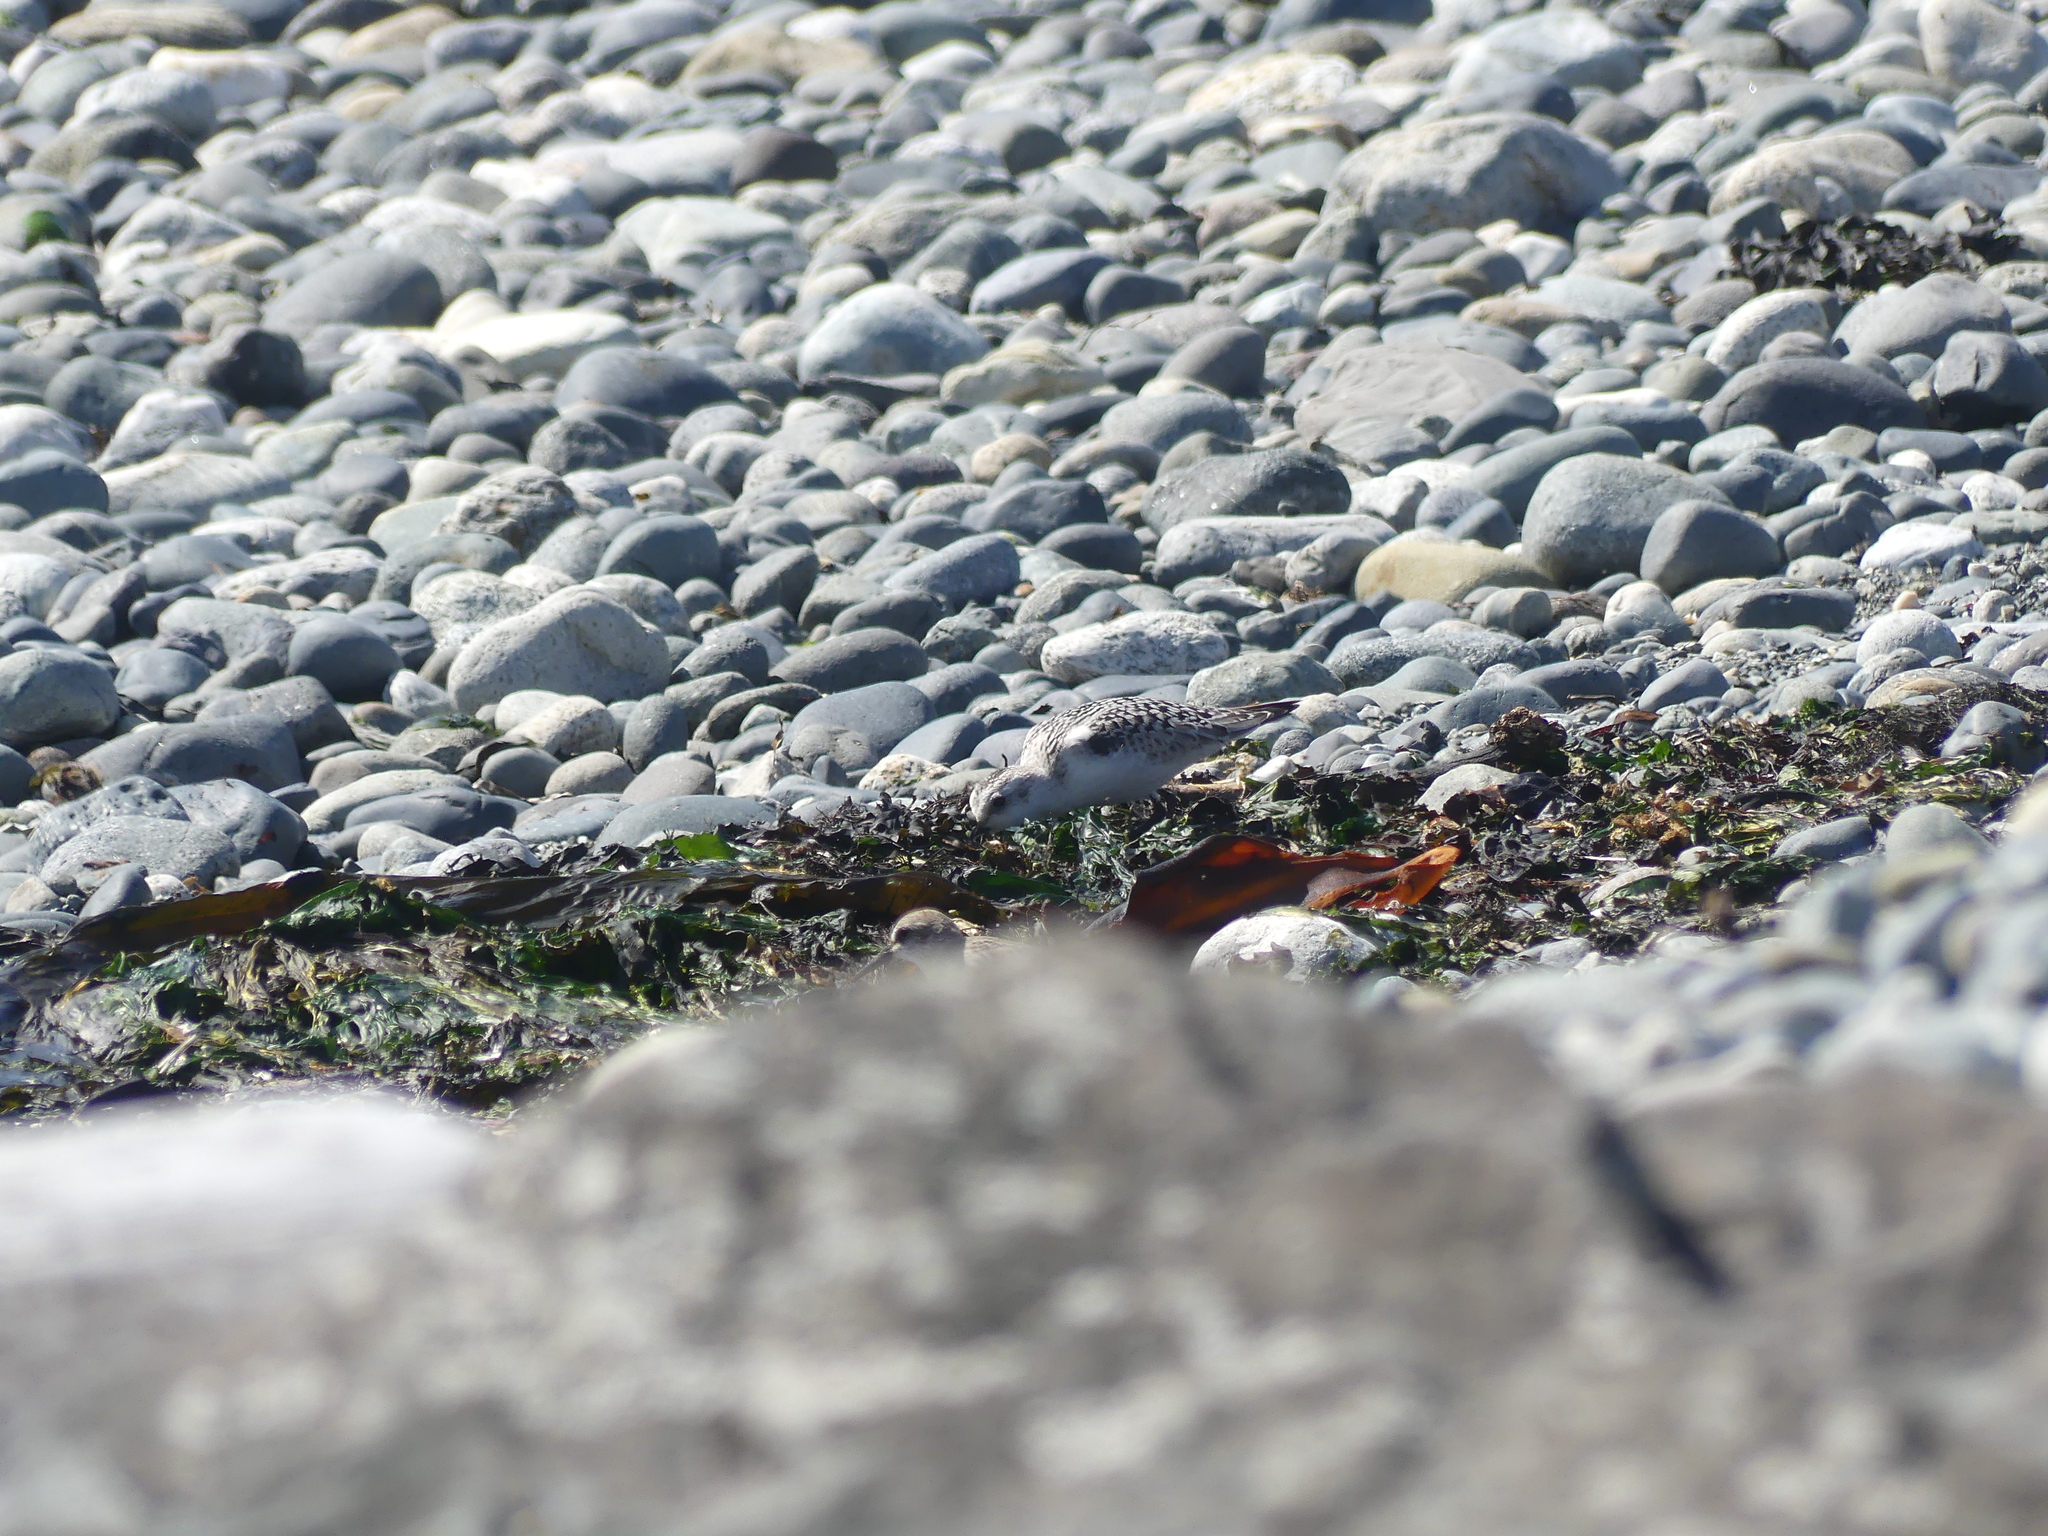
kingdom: Animalia
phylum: Chordata
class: Aves
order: Charadriiformes
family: Scolopacidae
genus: Calidris
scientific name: Calidris alba
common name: Sanderling
